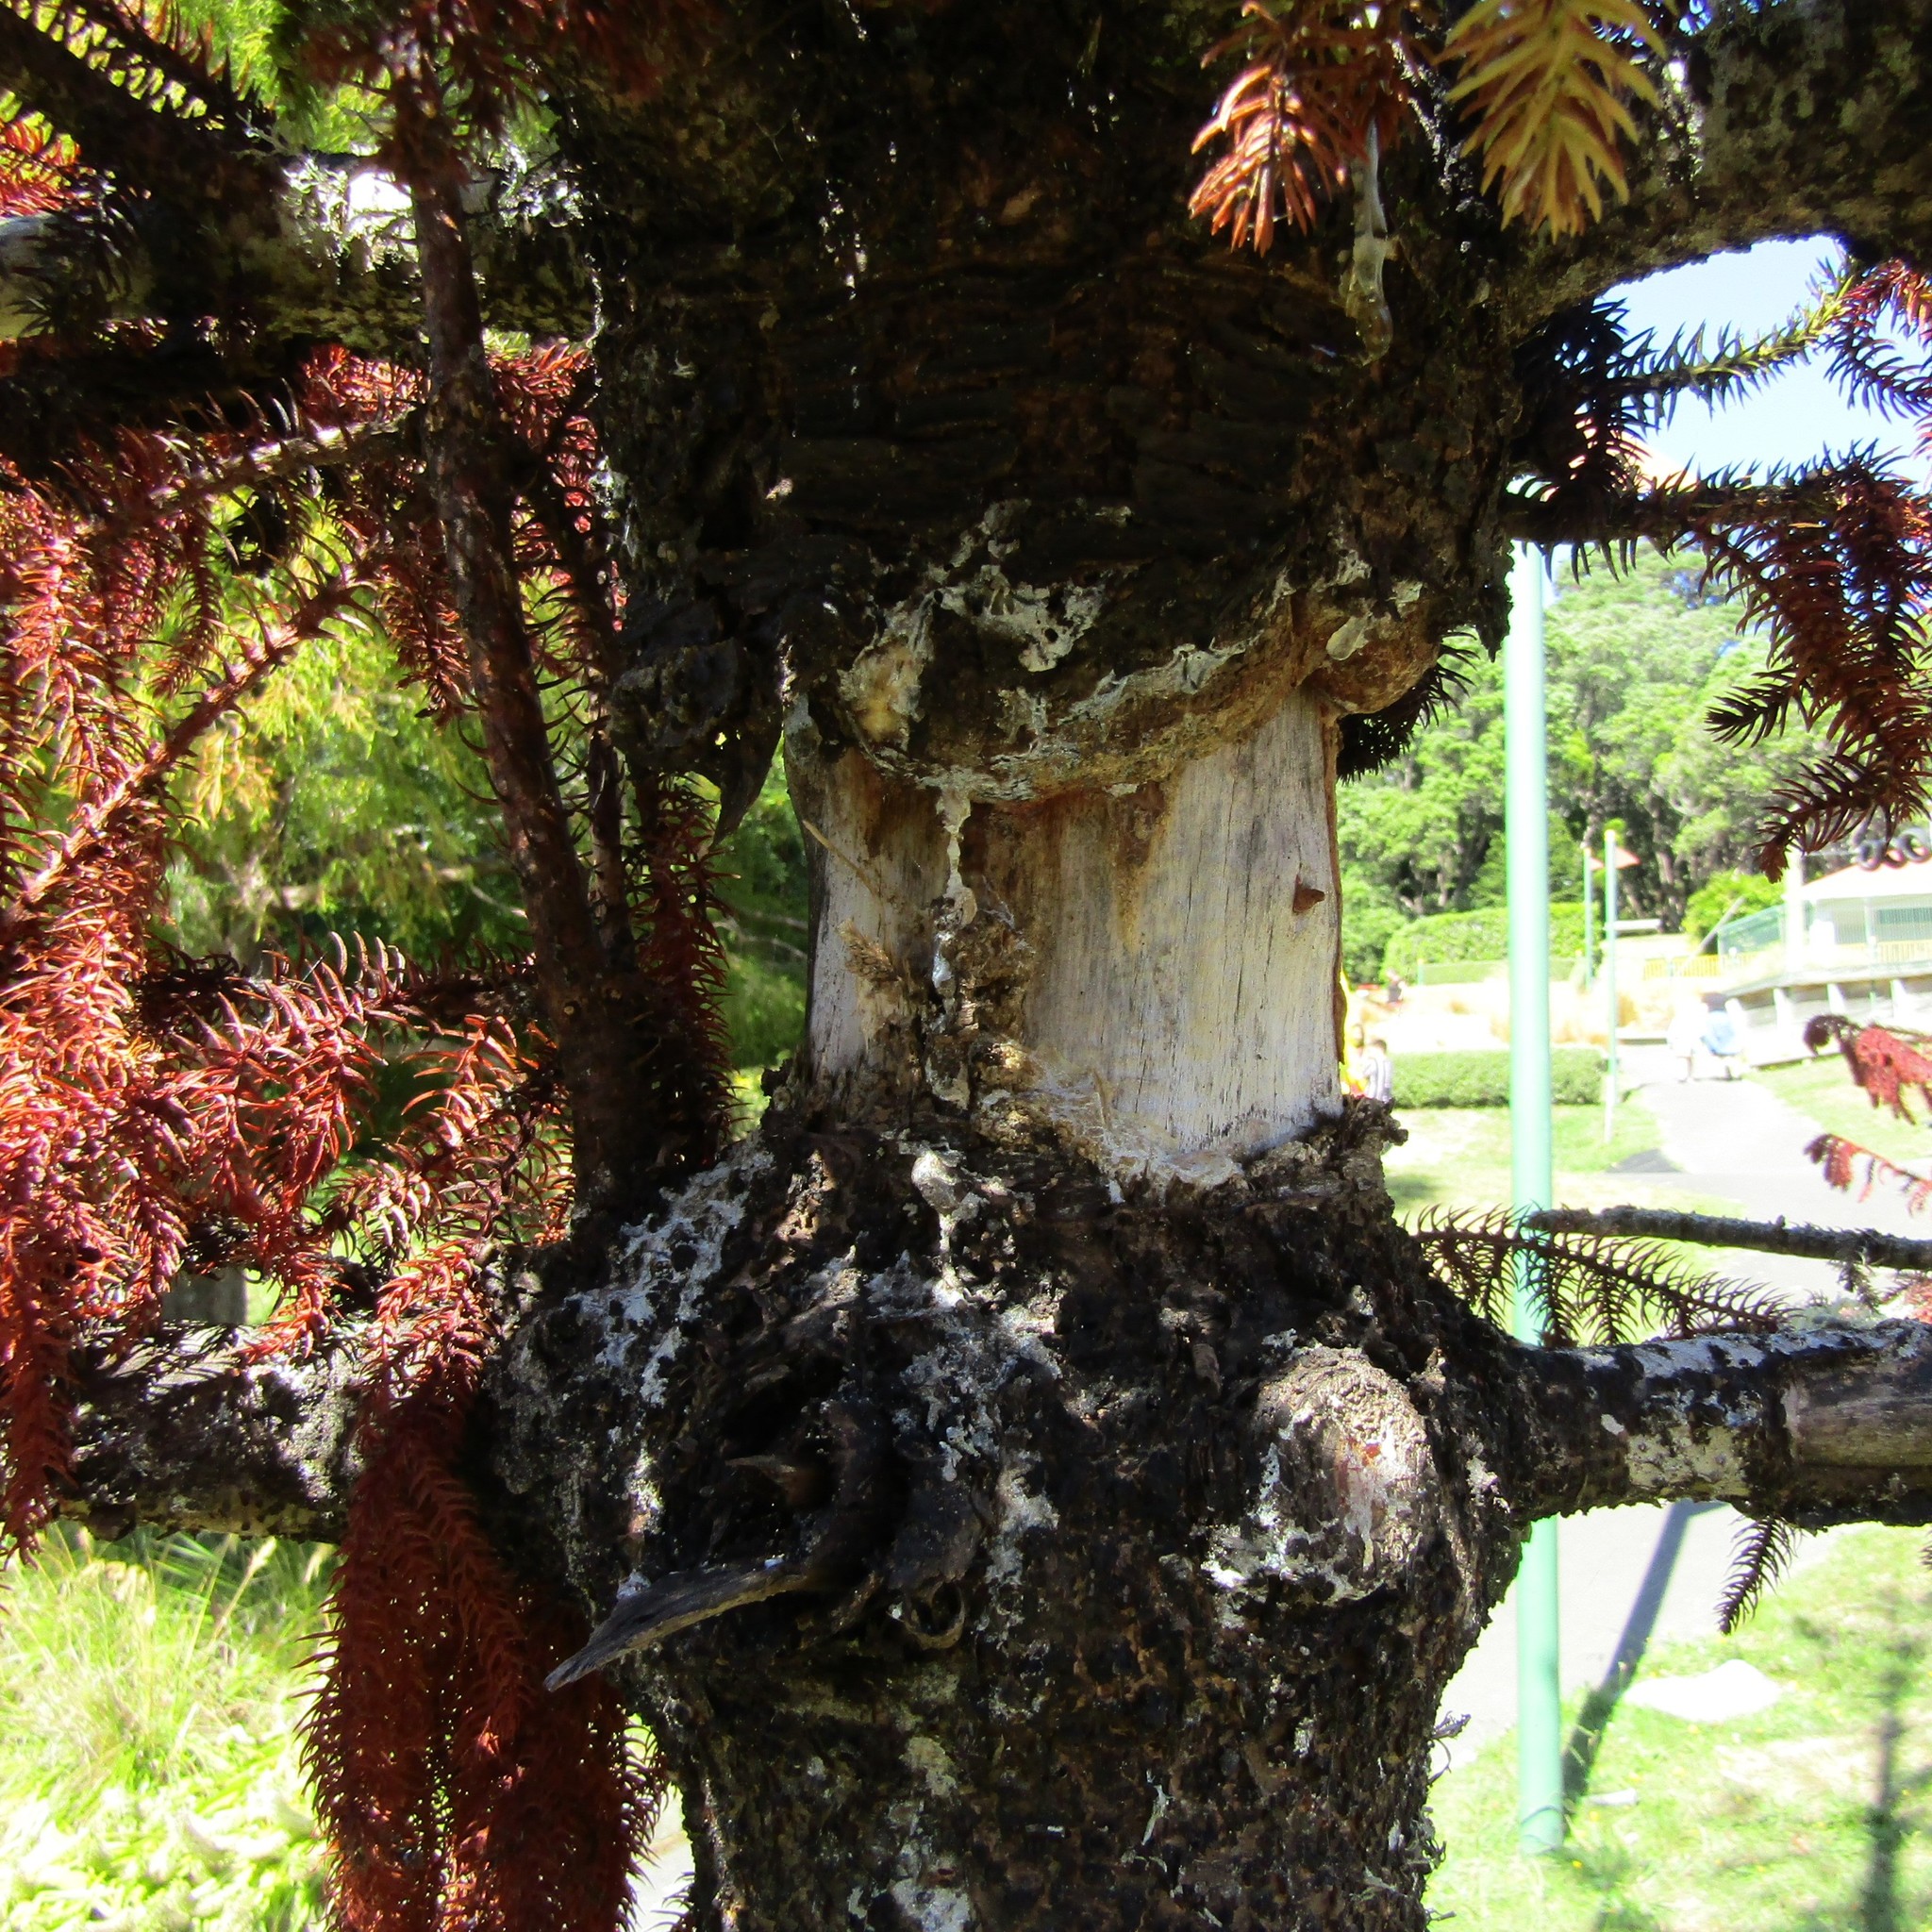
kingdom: Animalia
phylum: Chordata
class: Aves
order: Psittaciformes
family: Psittacidae
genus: Nestor
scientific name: Nestor meridionalis
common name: New zealand kaka
